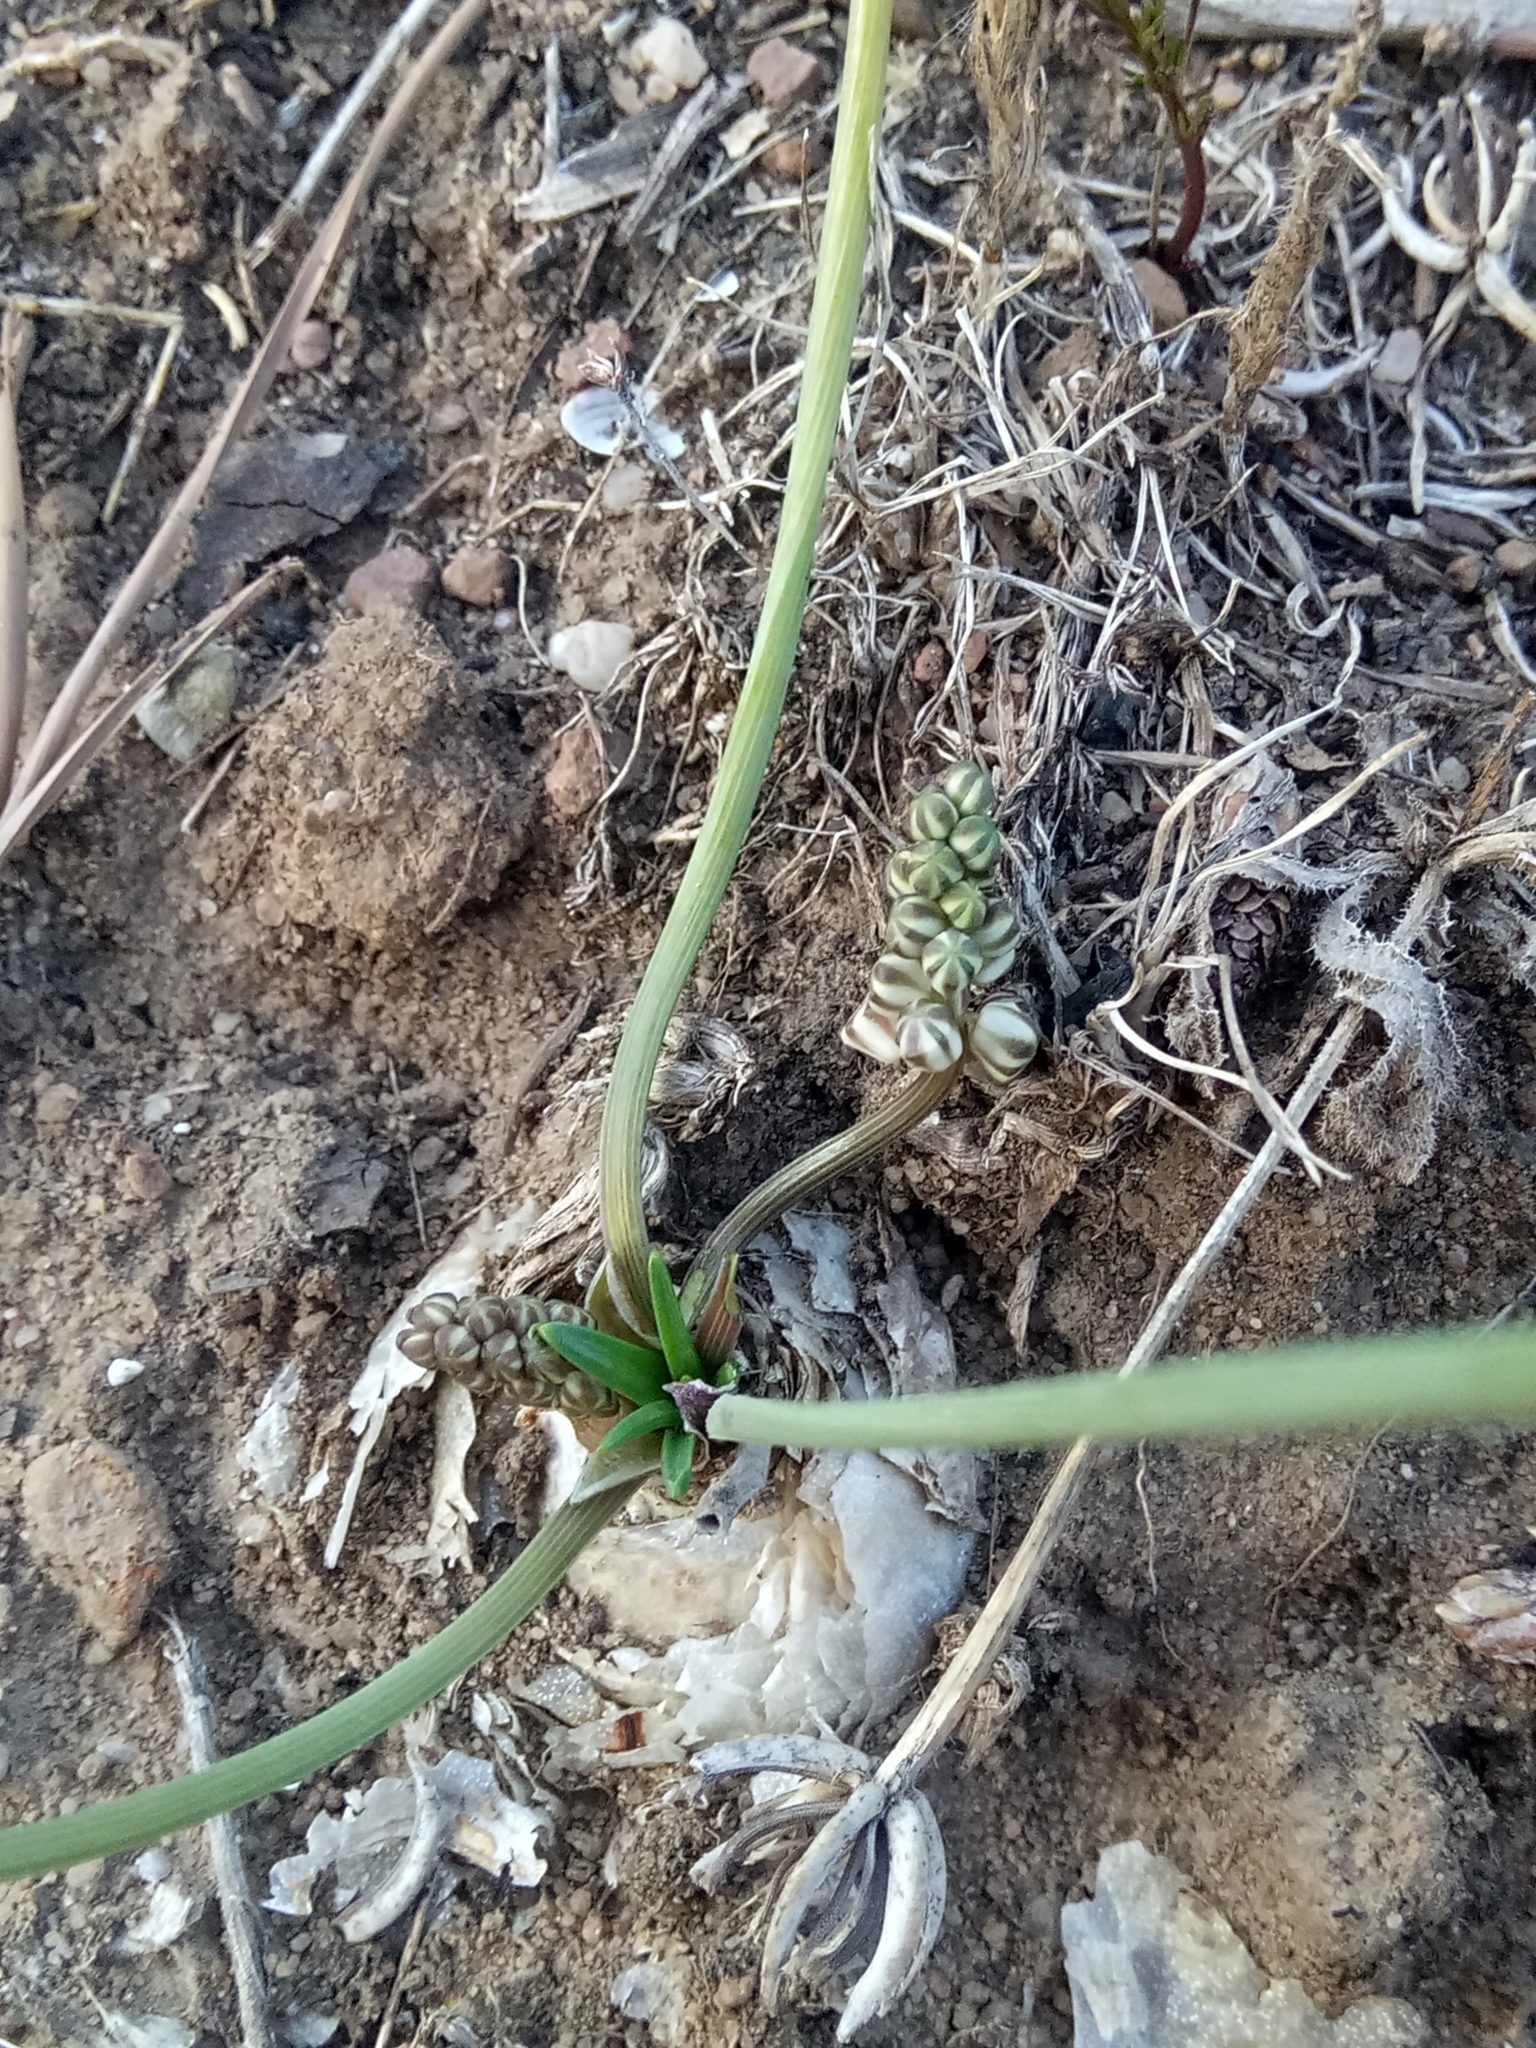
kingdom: Plantae
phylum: Tracheophyta
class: Liliopsida
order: Asparagales
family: Asparagaceae
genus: Prospero
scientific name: Prospero fallax
